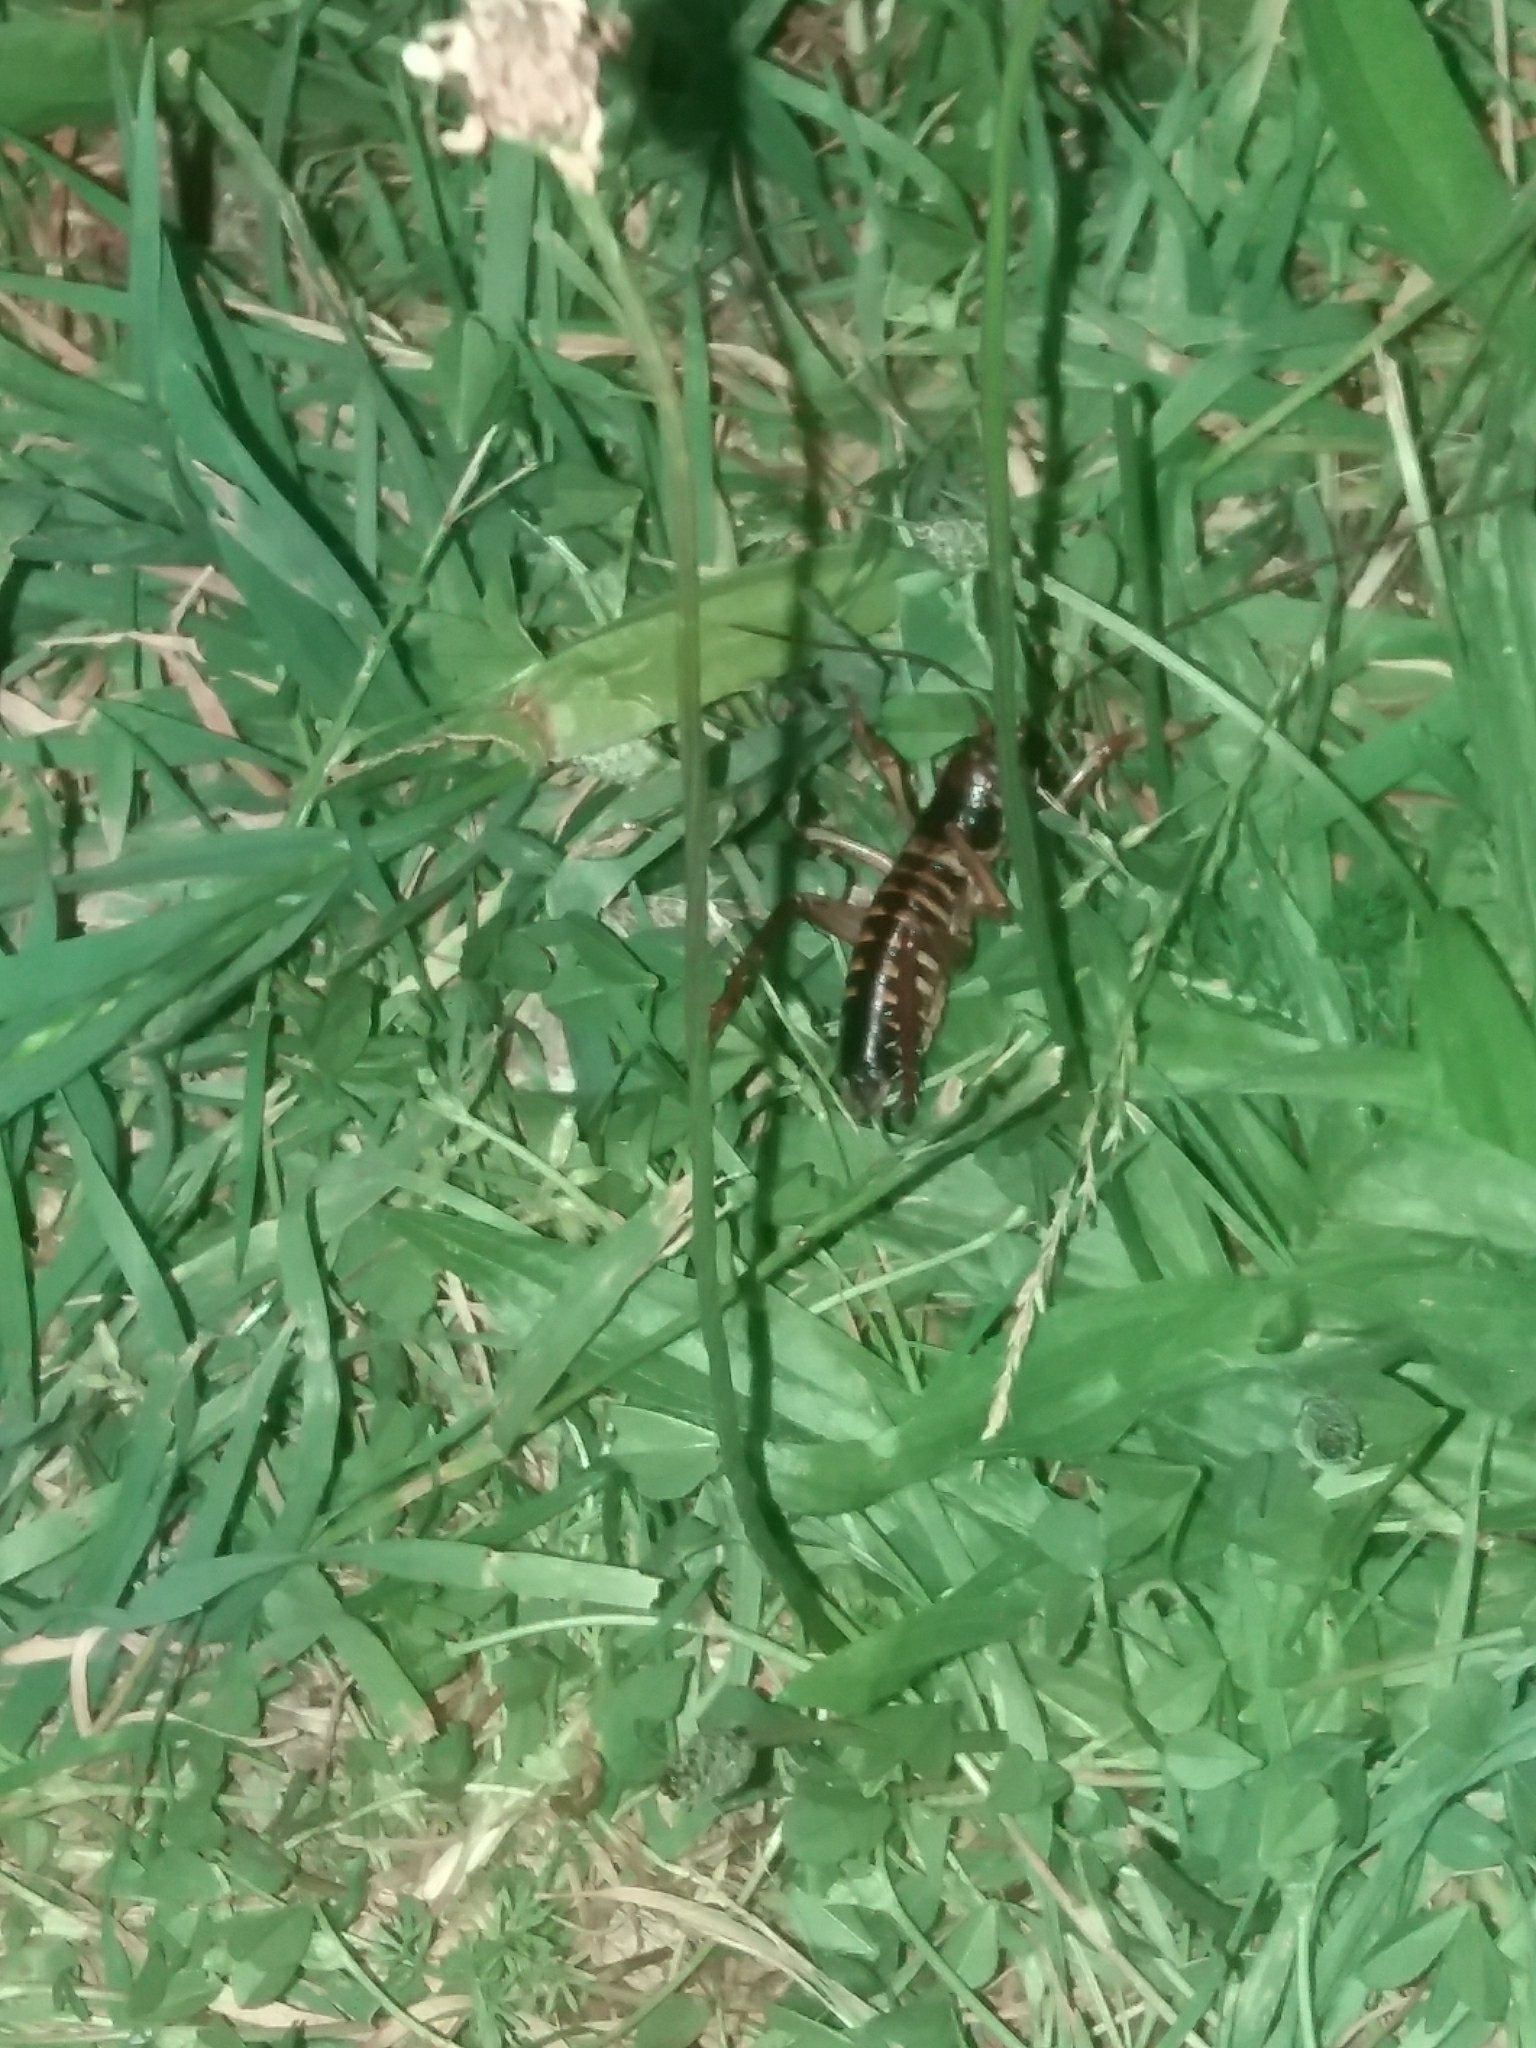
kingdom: Animalia
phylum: Arthropoda
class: Insecta
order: Orthoptera
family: Anostostomatidae
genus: Hemideina
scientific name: Hemideina crassidens
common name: Wellington tree weta
